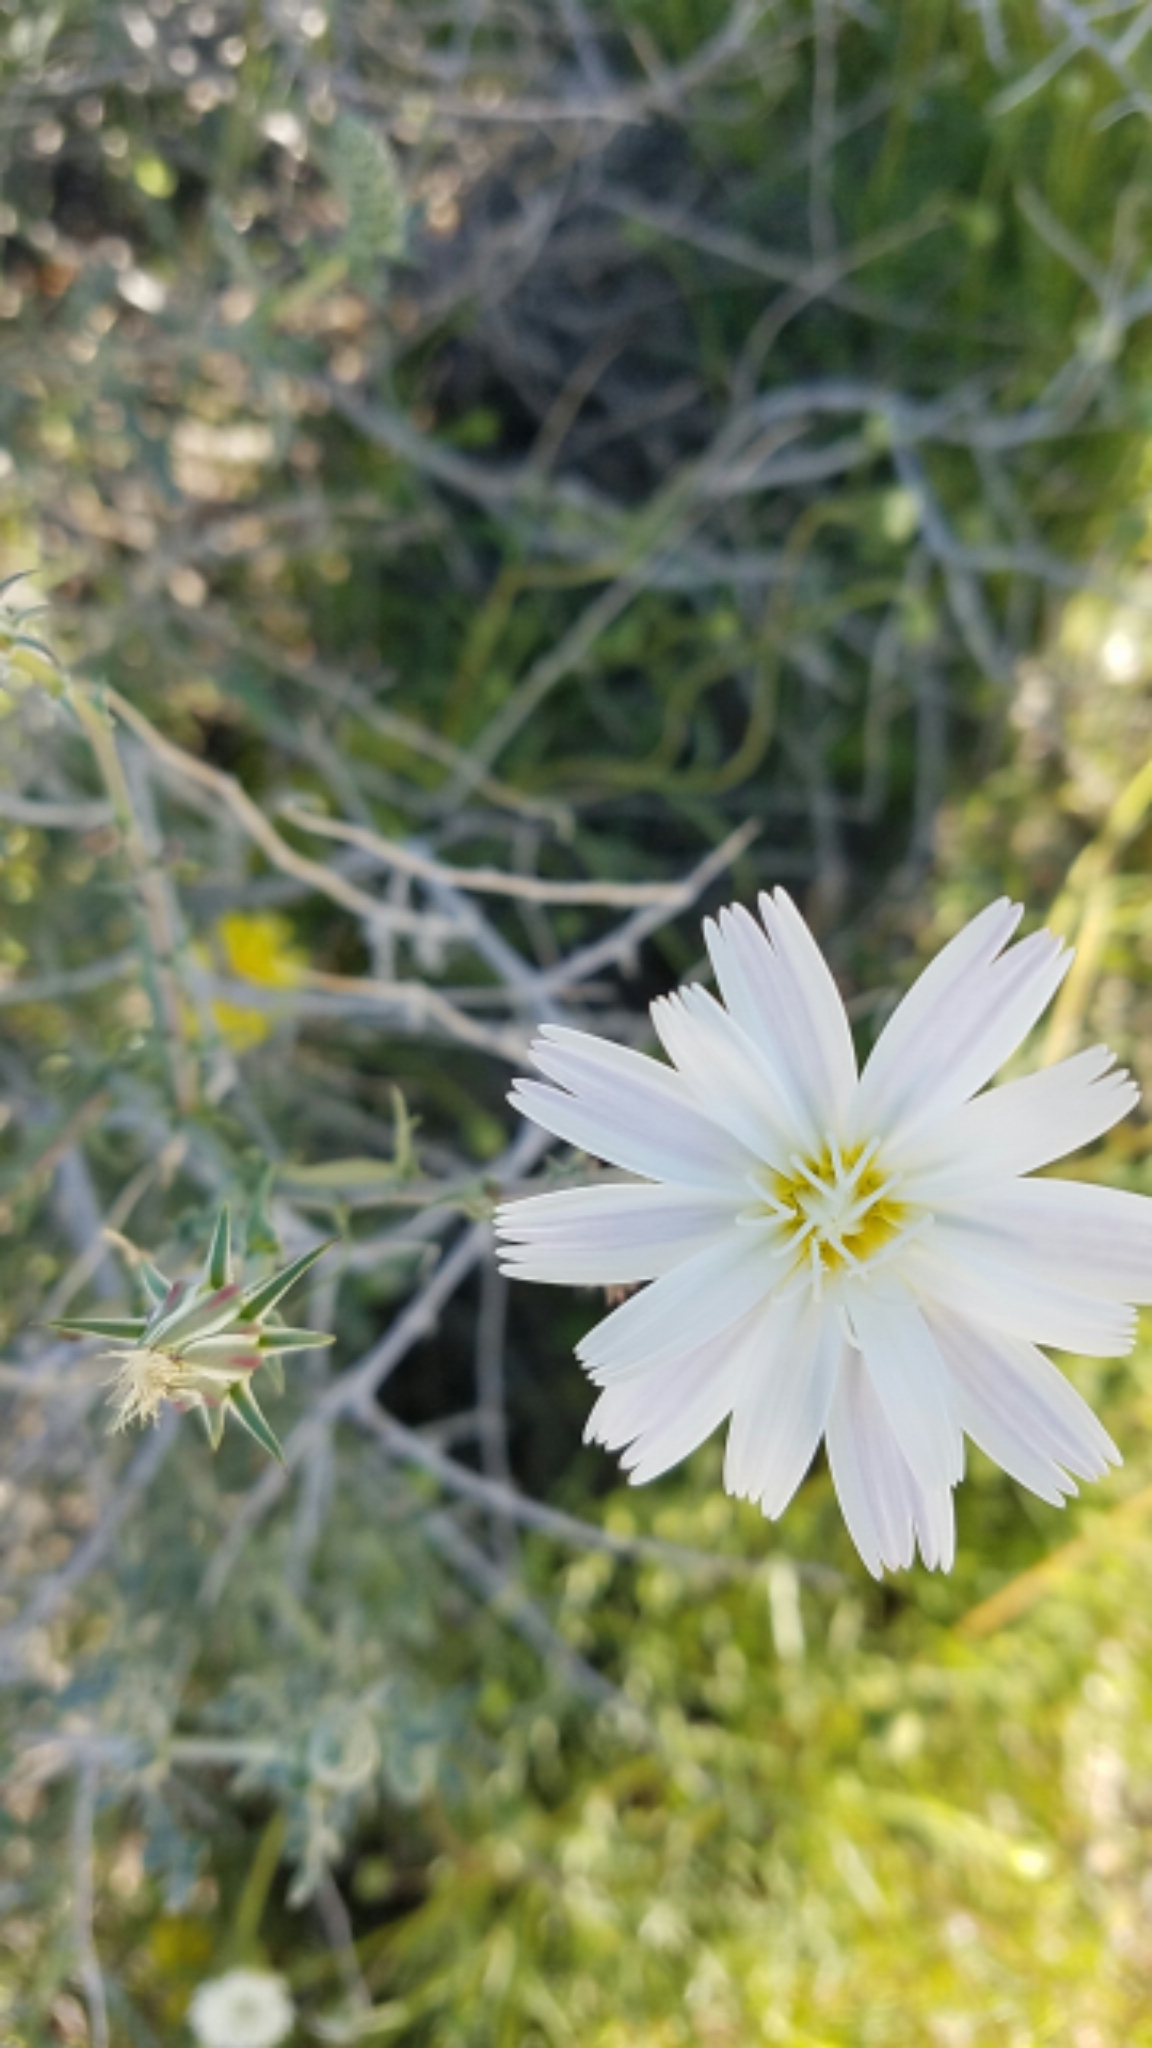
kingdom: Plantae
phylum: Tracheophyta
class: Magnoliopsida
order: Asterales
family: Asteraceae
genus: Rafinesquia
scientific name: Rafinesquia neomexicana
